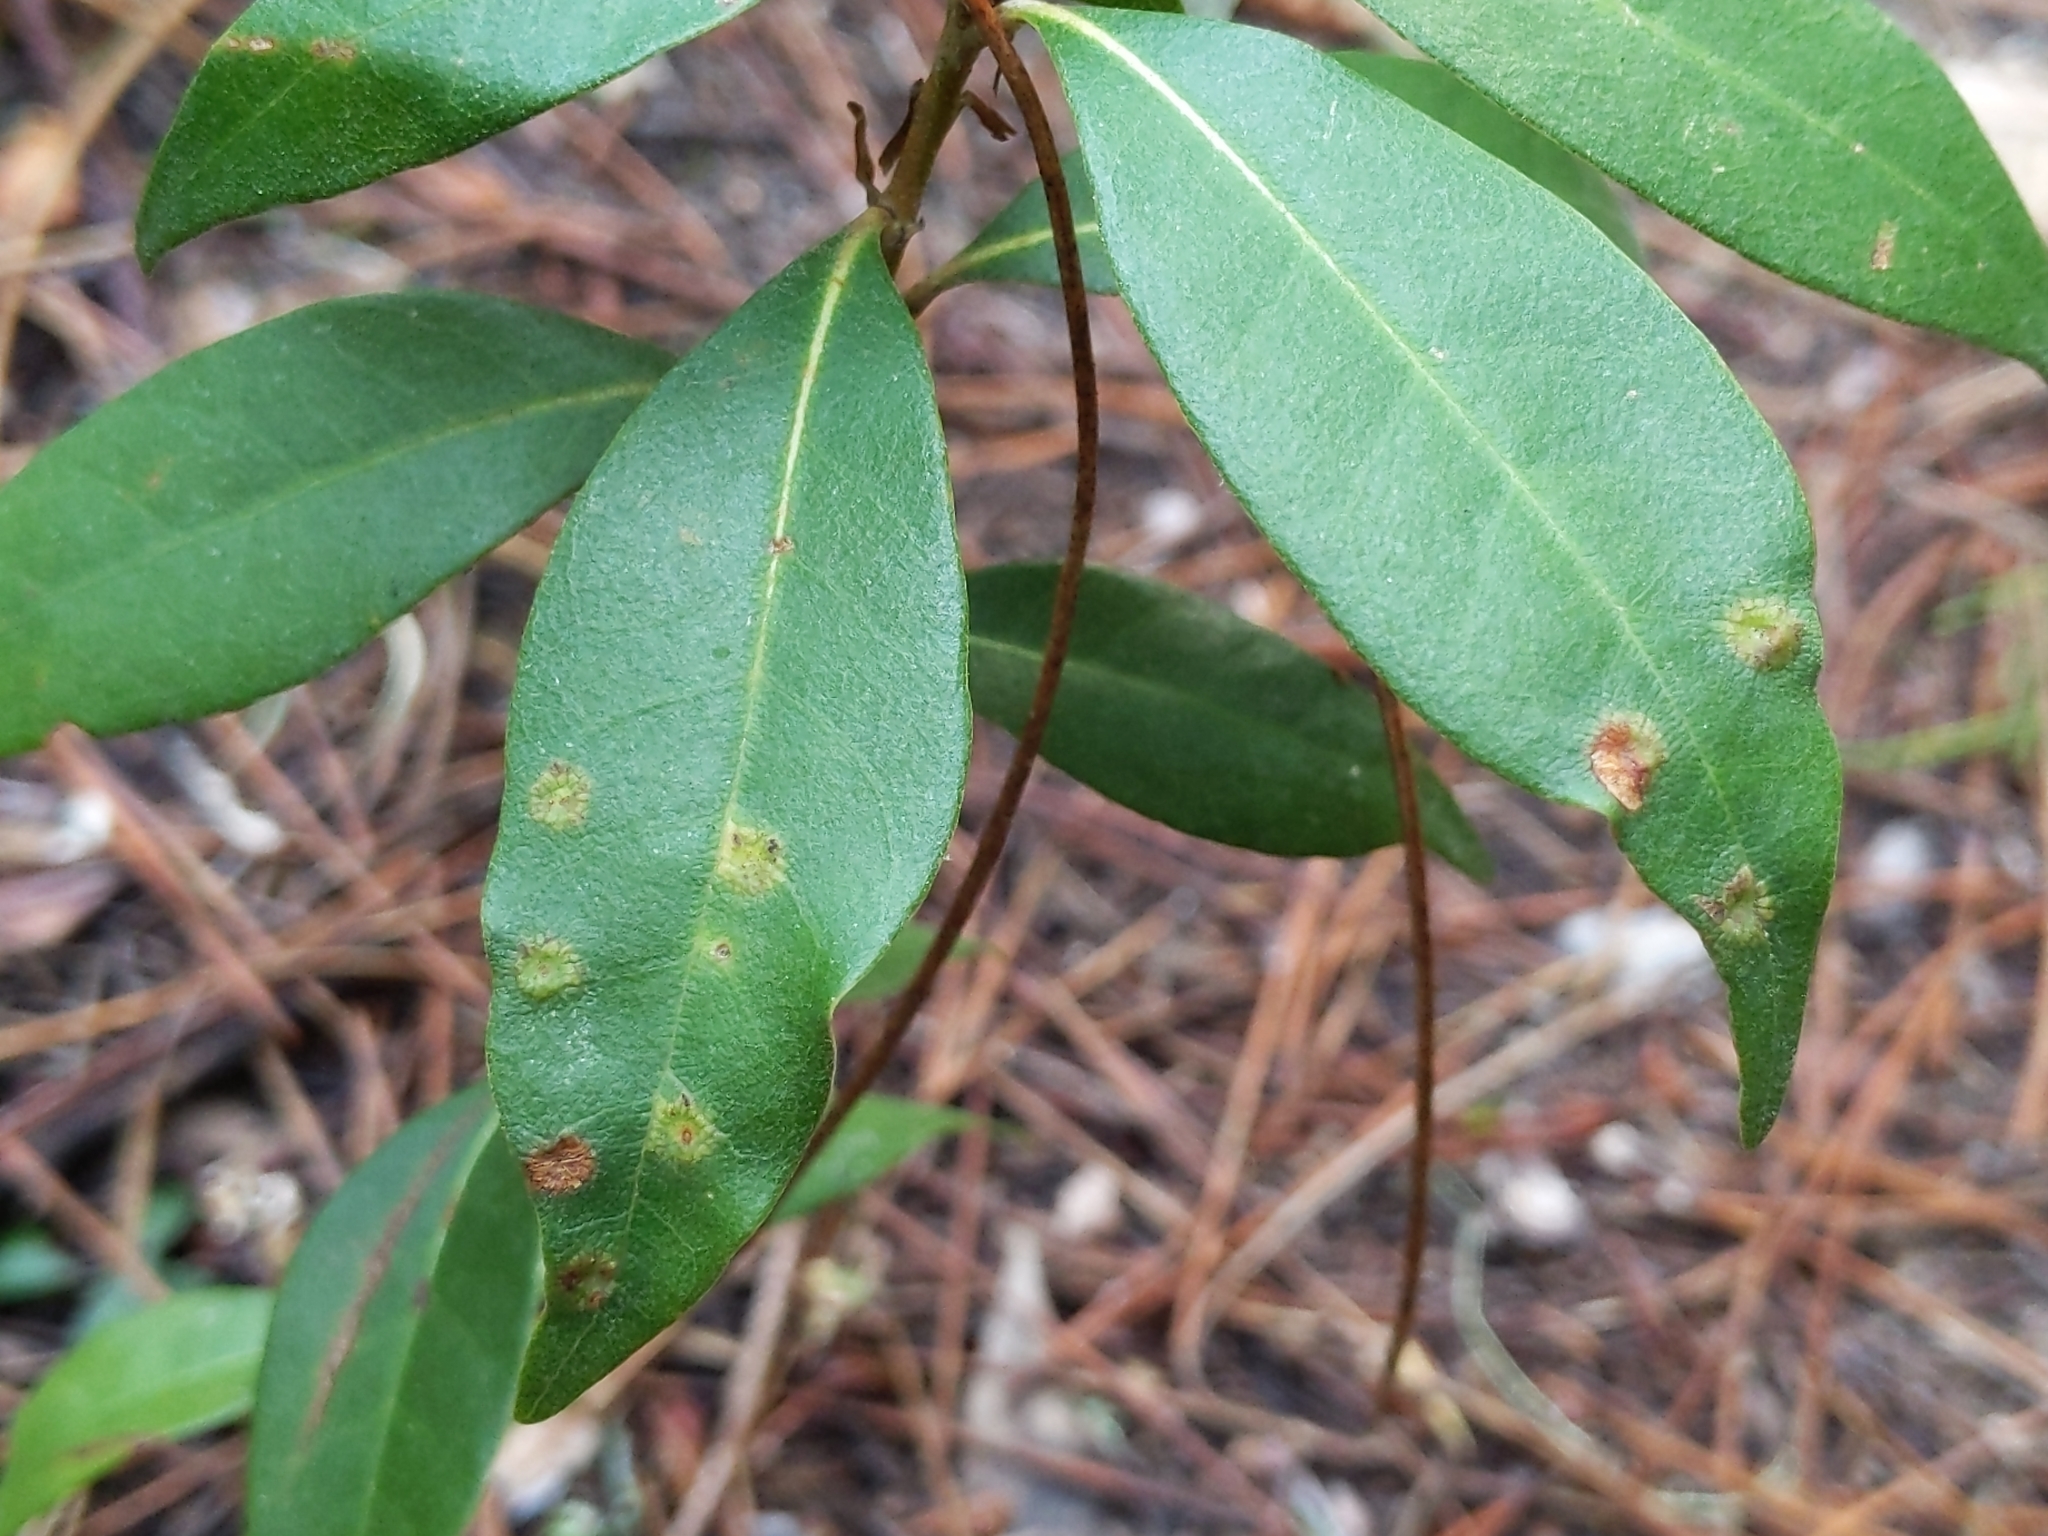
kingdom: Animalia
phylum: Arthropoda
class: Insecta
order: Hymenoptera
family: Cynipidae
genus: Dryocosmus
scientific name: Dryocosmus juliae
